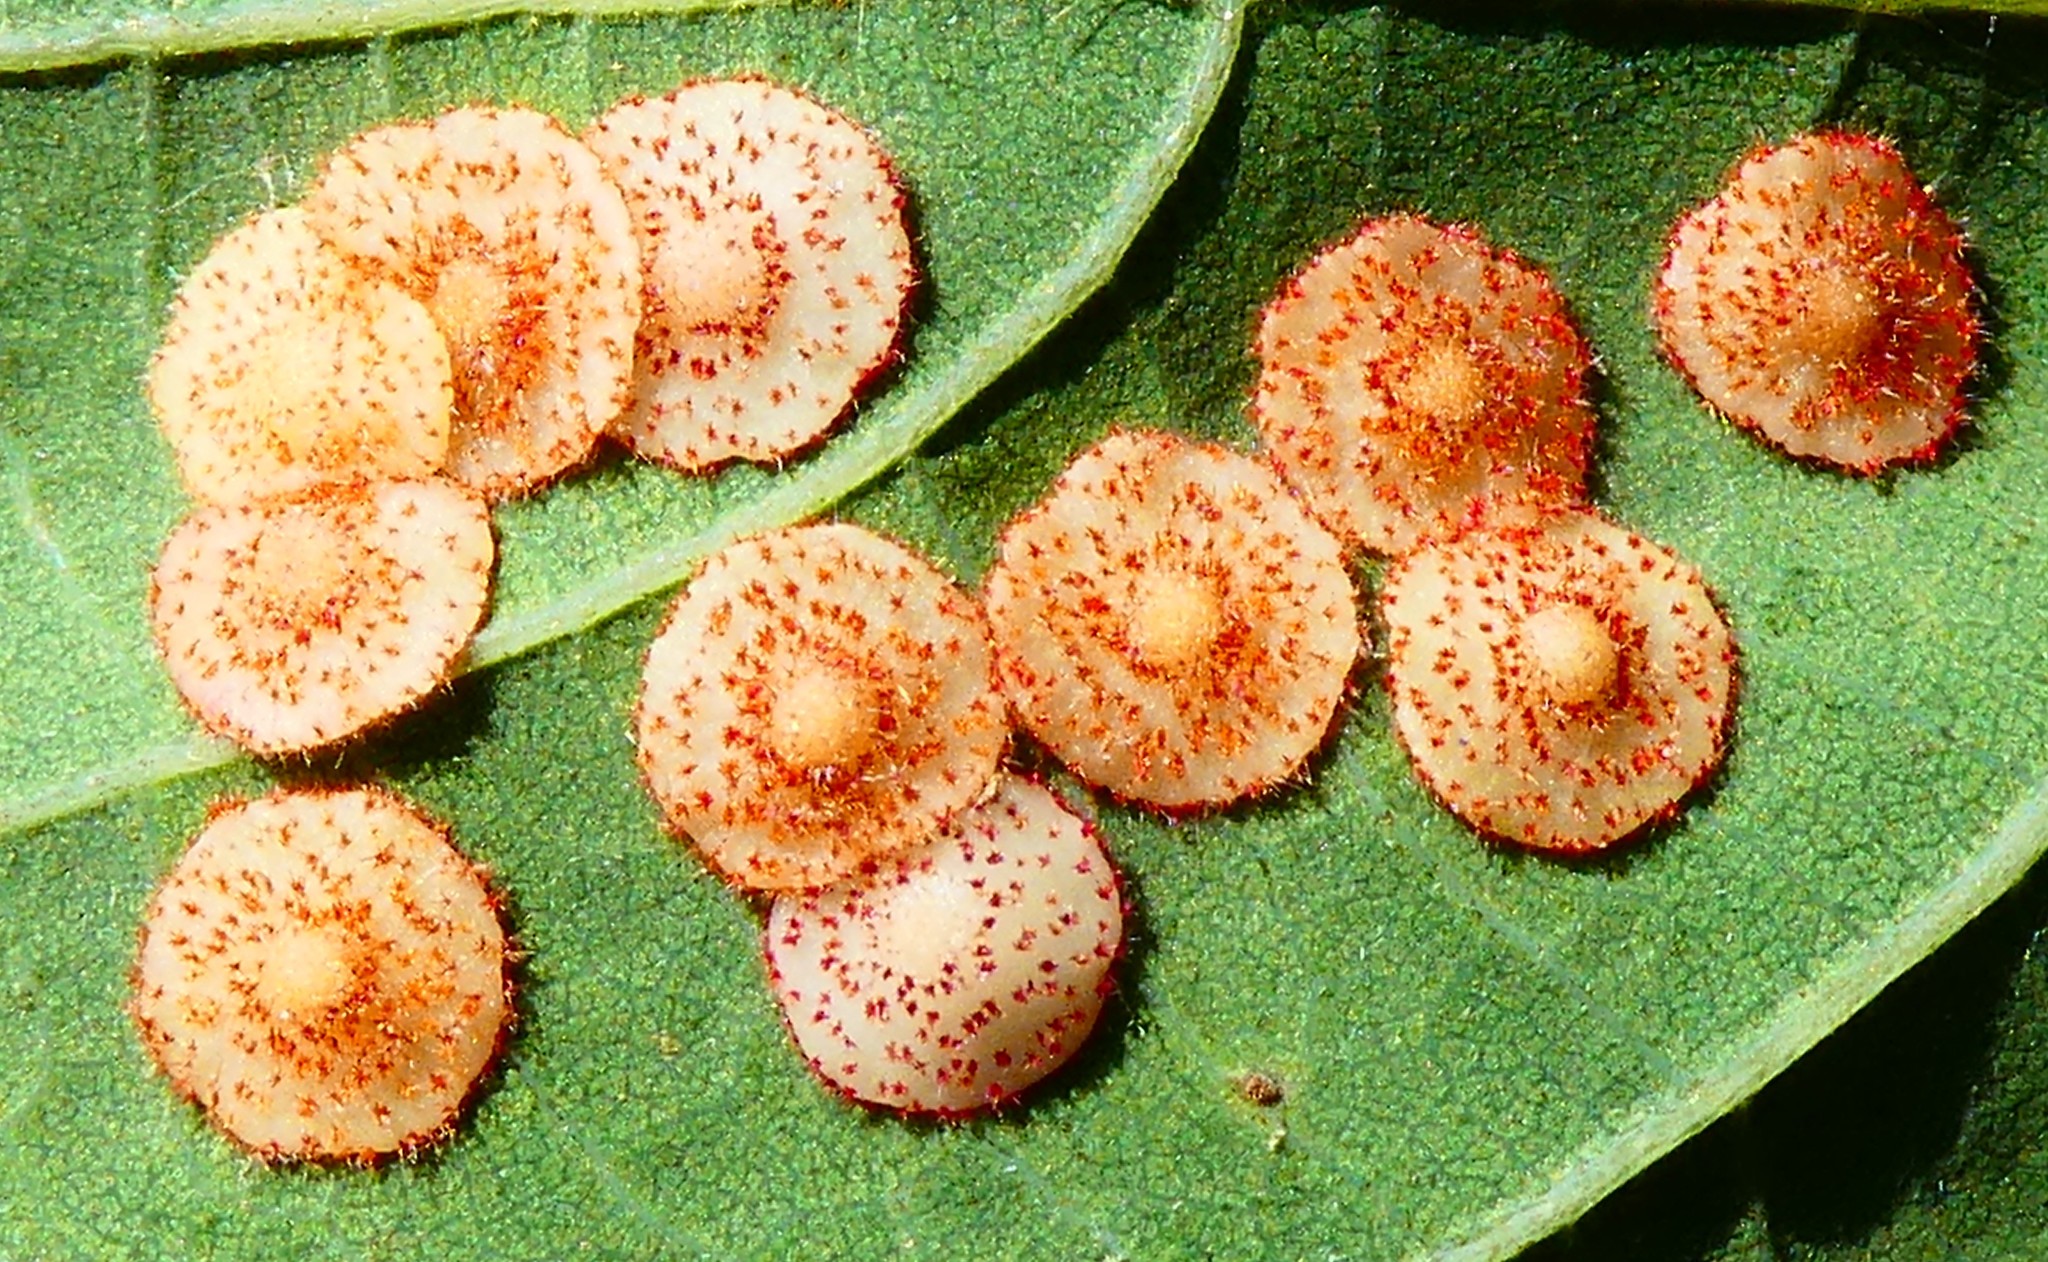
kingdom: Animalia
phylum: Arthropoda
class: Insecta
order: Hymenoptera
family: Cynipidae
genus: Neuroterus
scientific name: Neuroterus quercusbaccarum
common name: Common spangle gall
